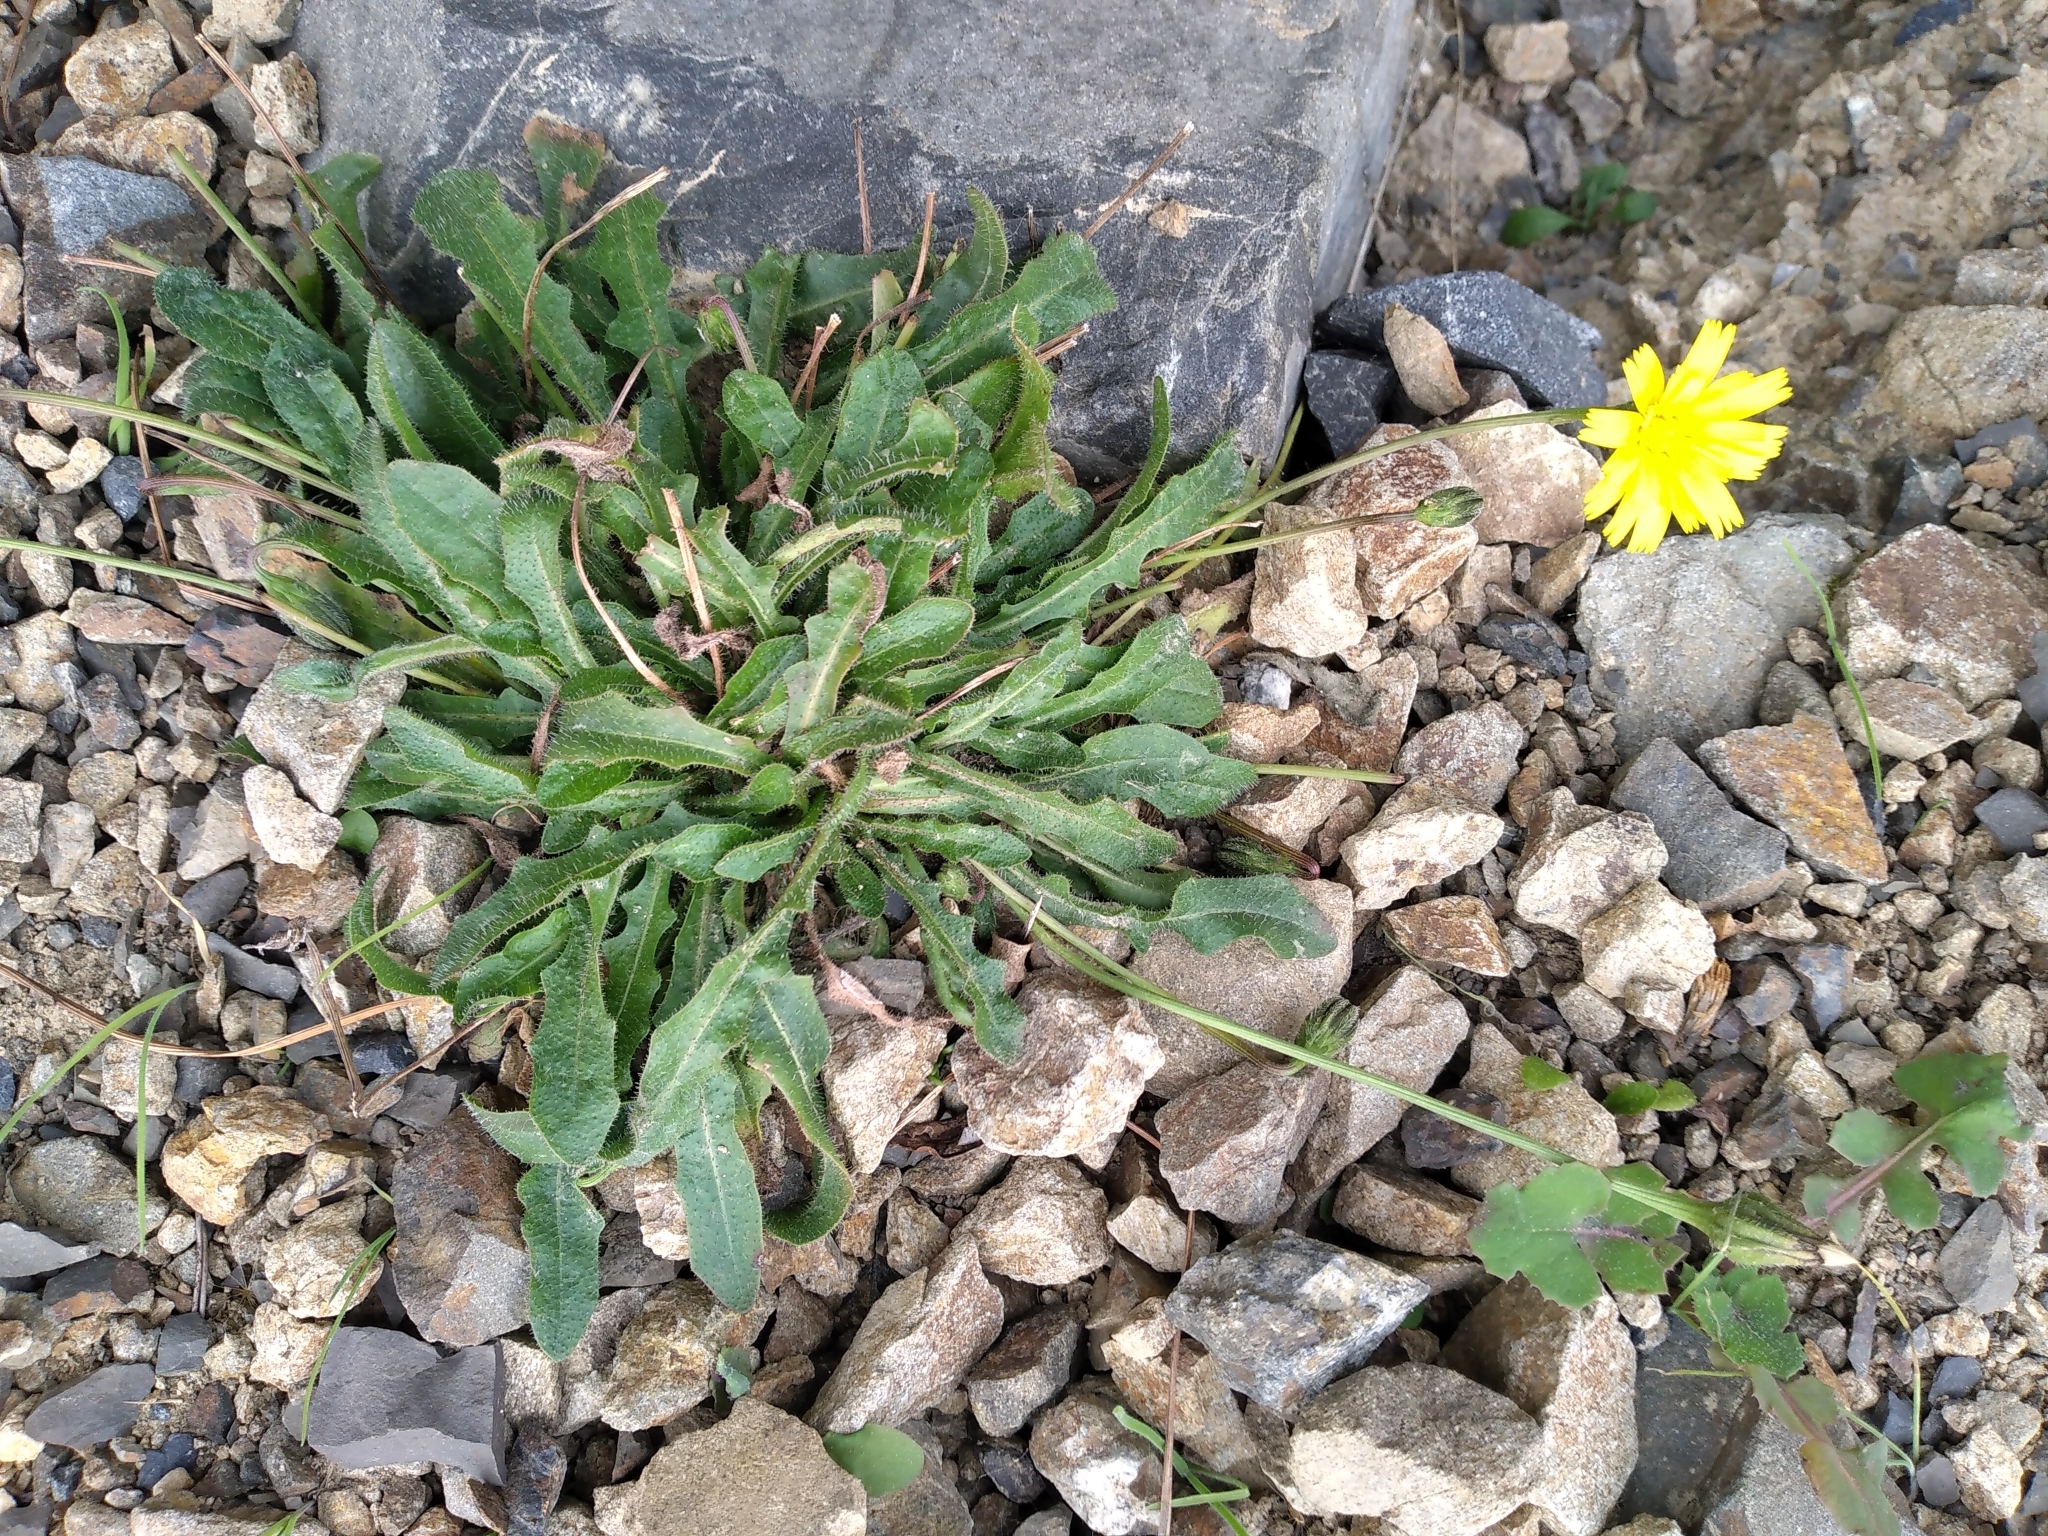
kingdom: Plantae
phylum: Tracheophyta
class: Magnoliopsida
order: Asterales
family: Asteraceae
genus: Hypochaeris
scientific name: Hypochaeris radicata
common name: Flatweed
